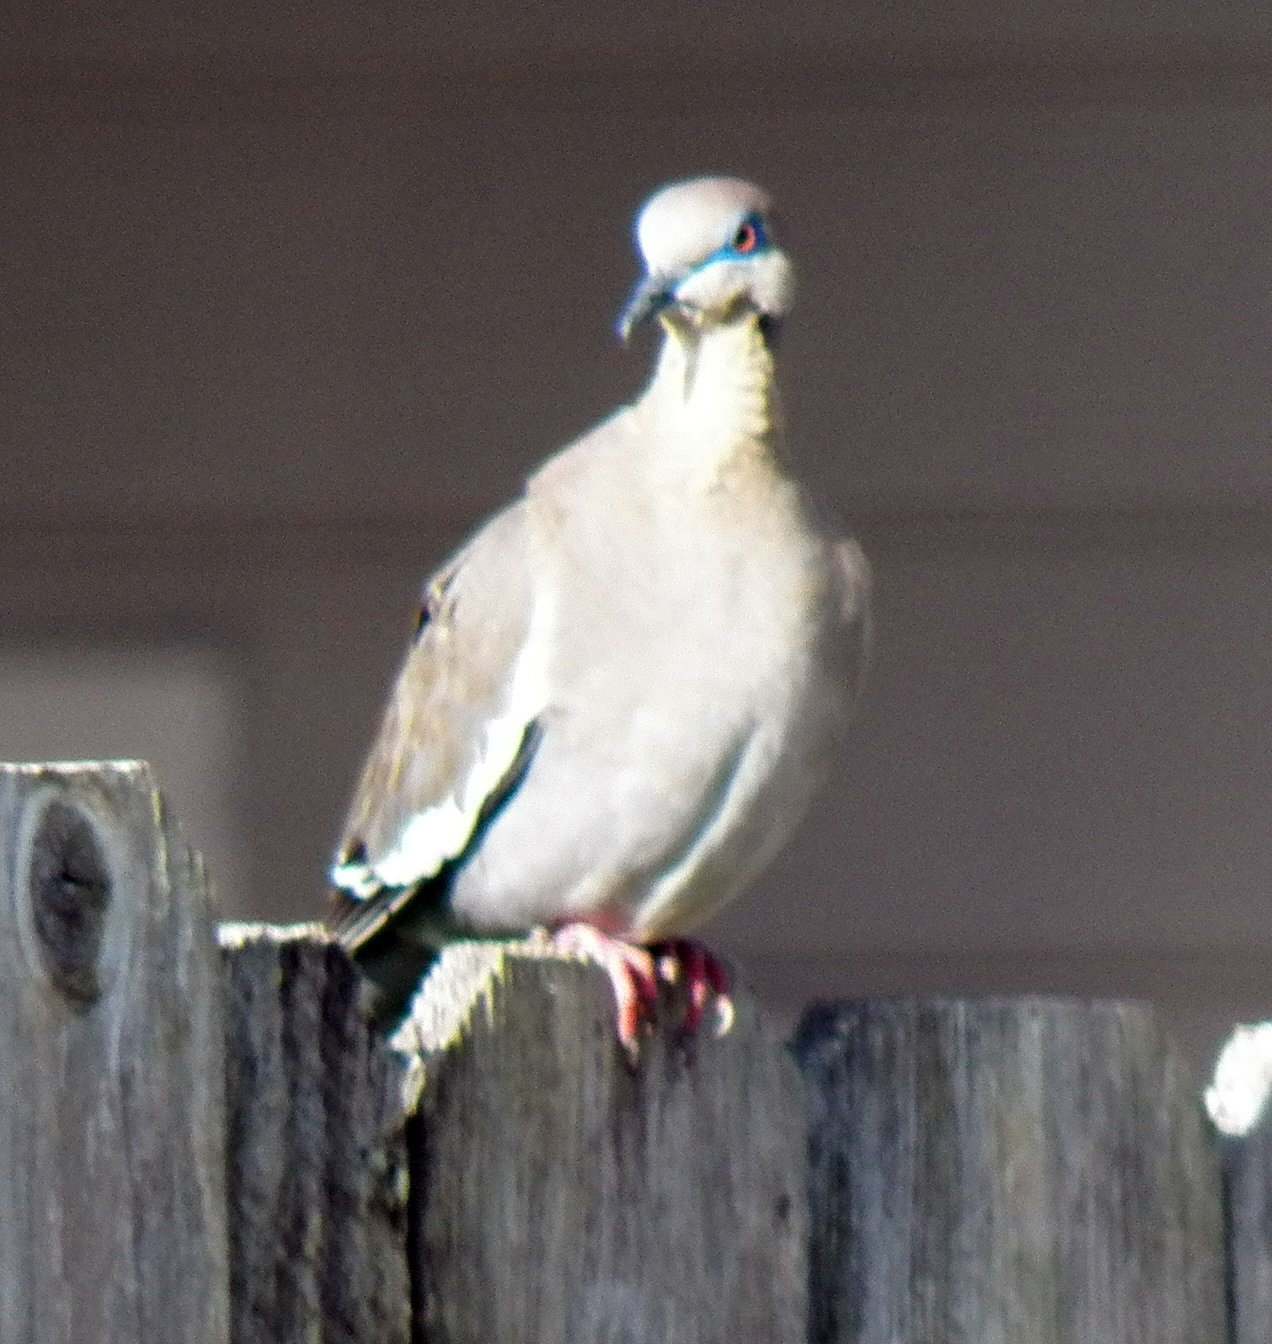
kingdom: Animalia
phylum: Chordata
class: Aves
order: Columbiformes
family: Columbidae
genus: Zenaida
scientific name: Zenaida asiatica
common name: White-winged dove
